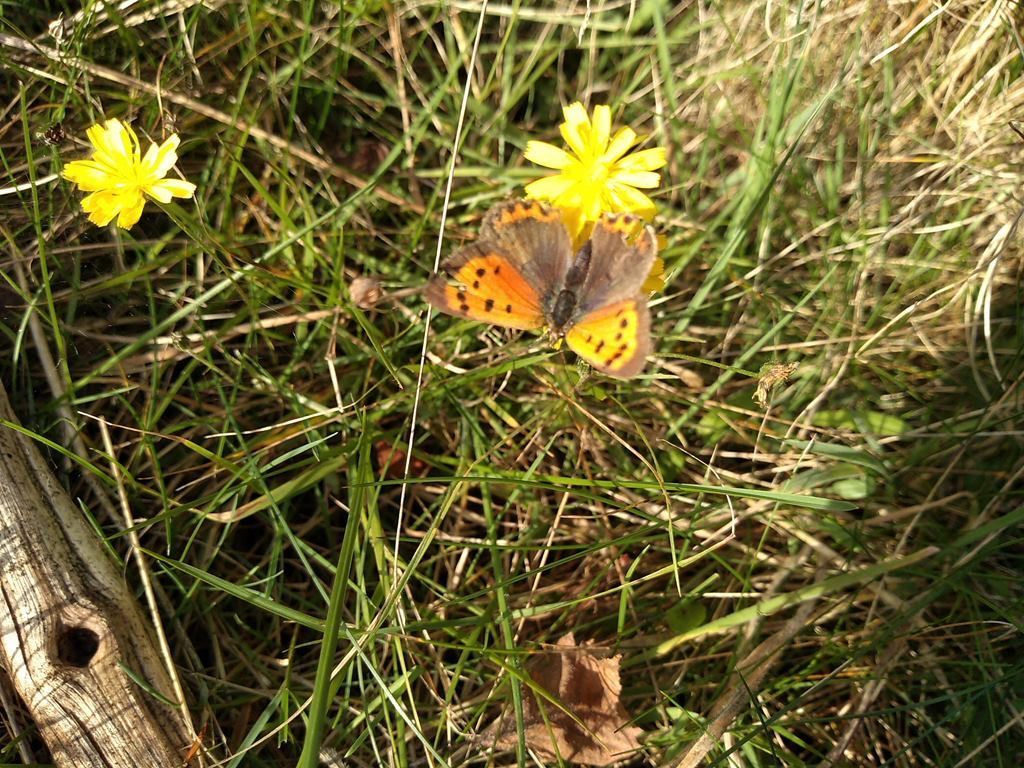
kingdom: Animalia
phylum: Arthropoda
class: Insecta
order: Lepidoptera
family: Lycaenidae
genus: Lycaena
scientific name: Lycaena phlaeas
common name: Small copper
